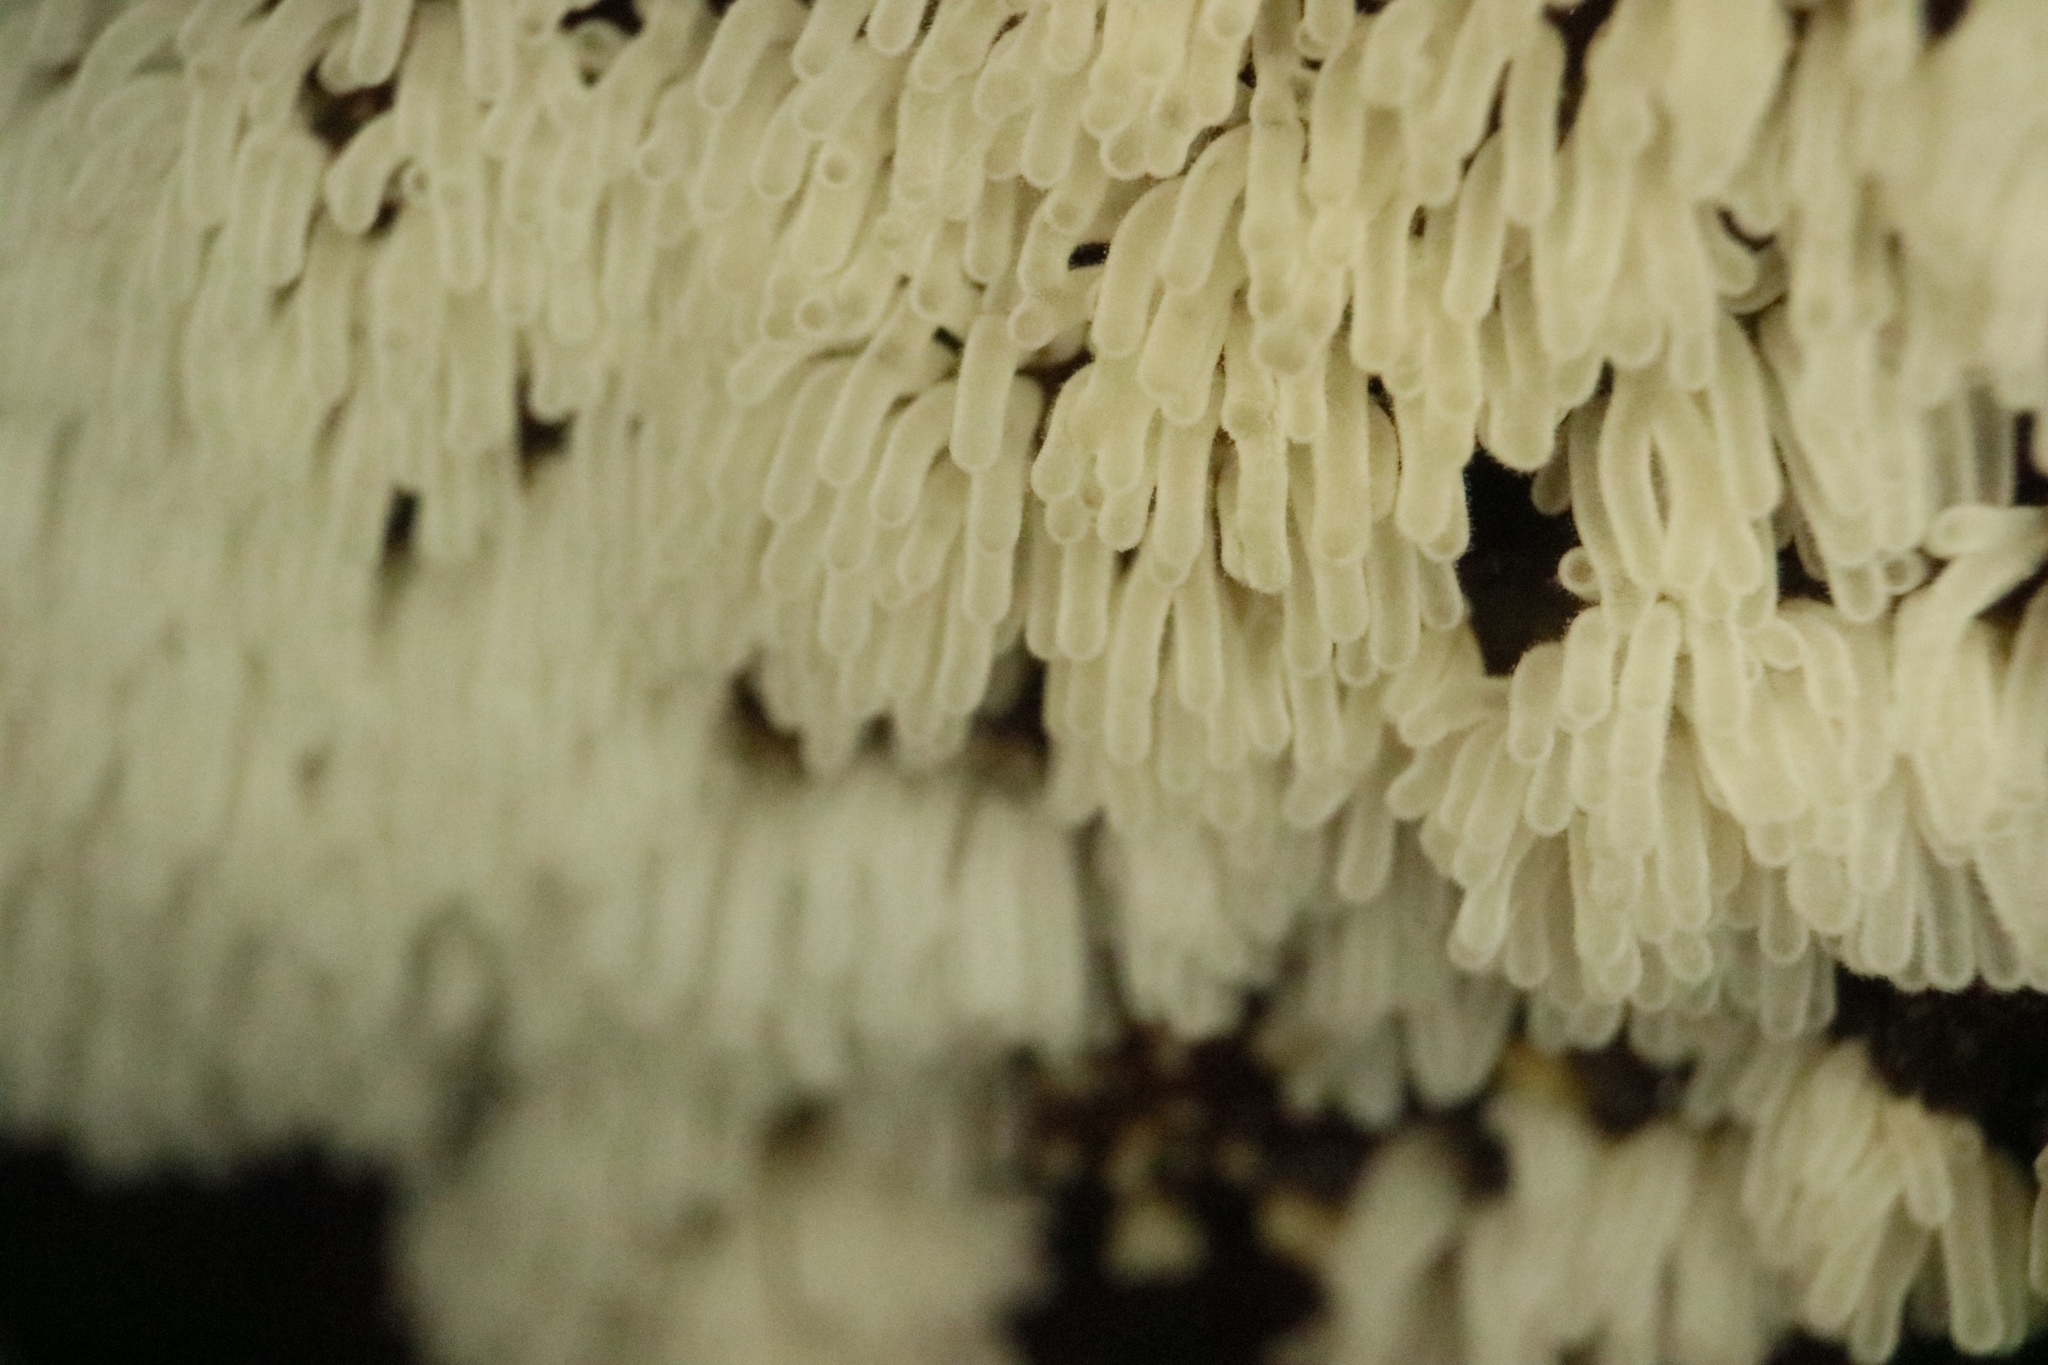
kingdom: Protozoa
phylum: Mycetozoa
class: Protosteliomycetes
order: Ceratiomyxales
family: Ceratiomyxaceae
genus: Ceratiomyxa
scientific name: Ceratiomyxa fruticulosa
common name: Honeycomb coral slime mold
